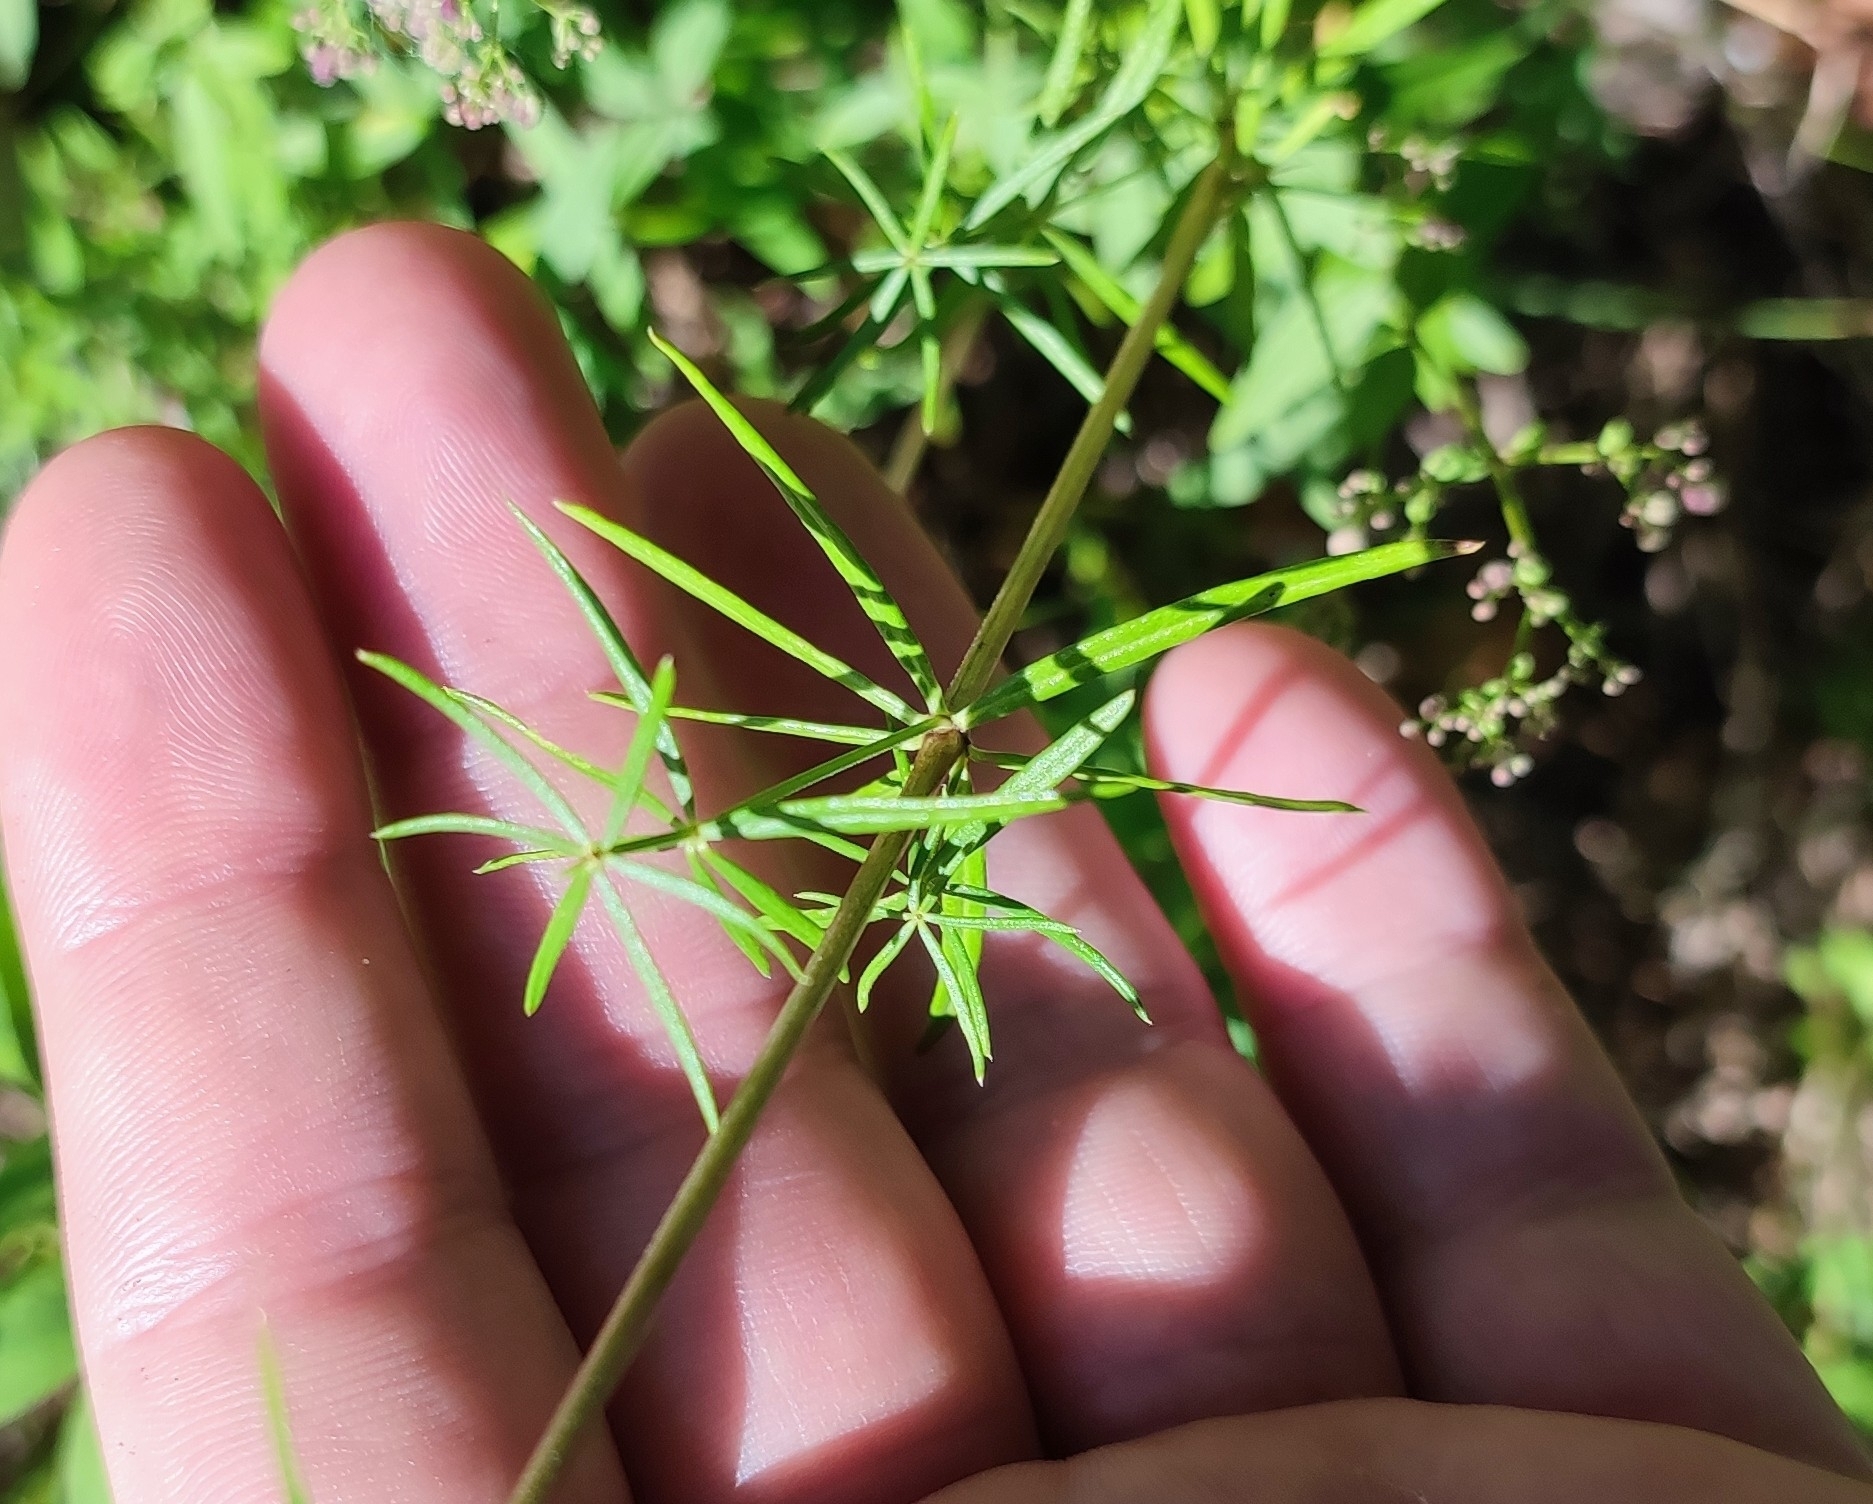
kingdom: Plantae
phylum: Tracheophyta
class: Magnoliopsida
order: Gentianales
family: Rubiaceae
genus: Galium
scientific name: Galium verum
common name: Lady's bedstraw
